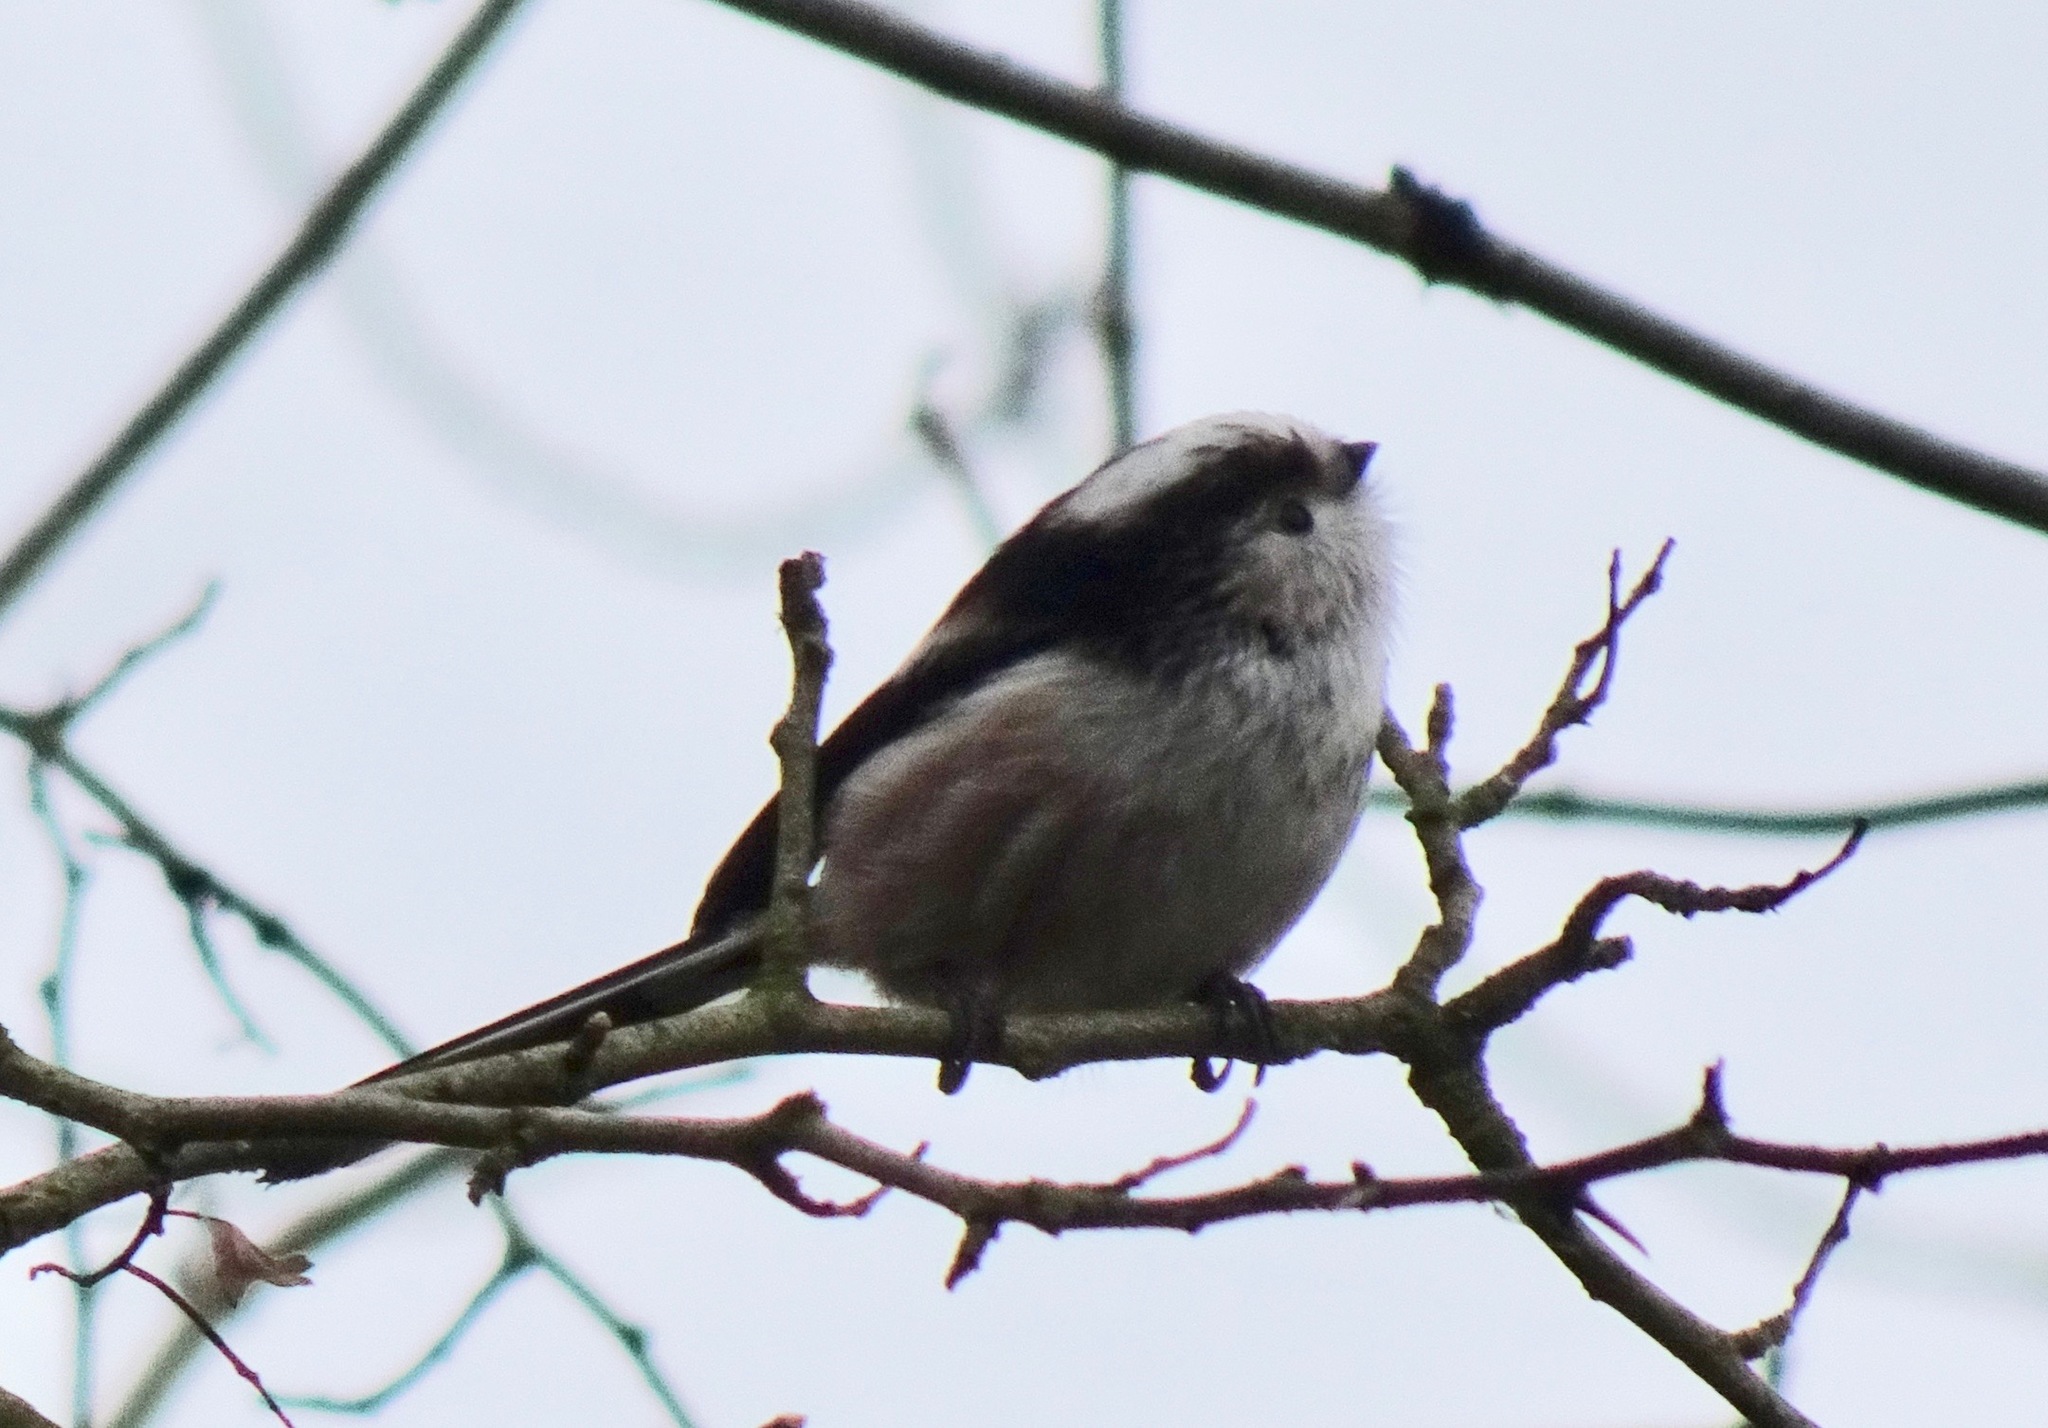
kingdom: Animalia
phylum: Chordata
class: Aves
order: Passeriformes
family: Aegithalidae
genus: Aegithalos
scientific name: Aegithalos caudatus
